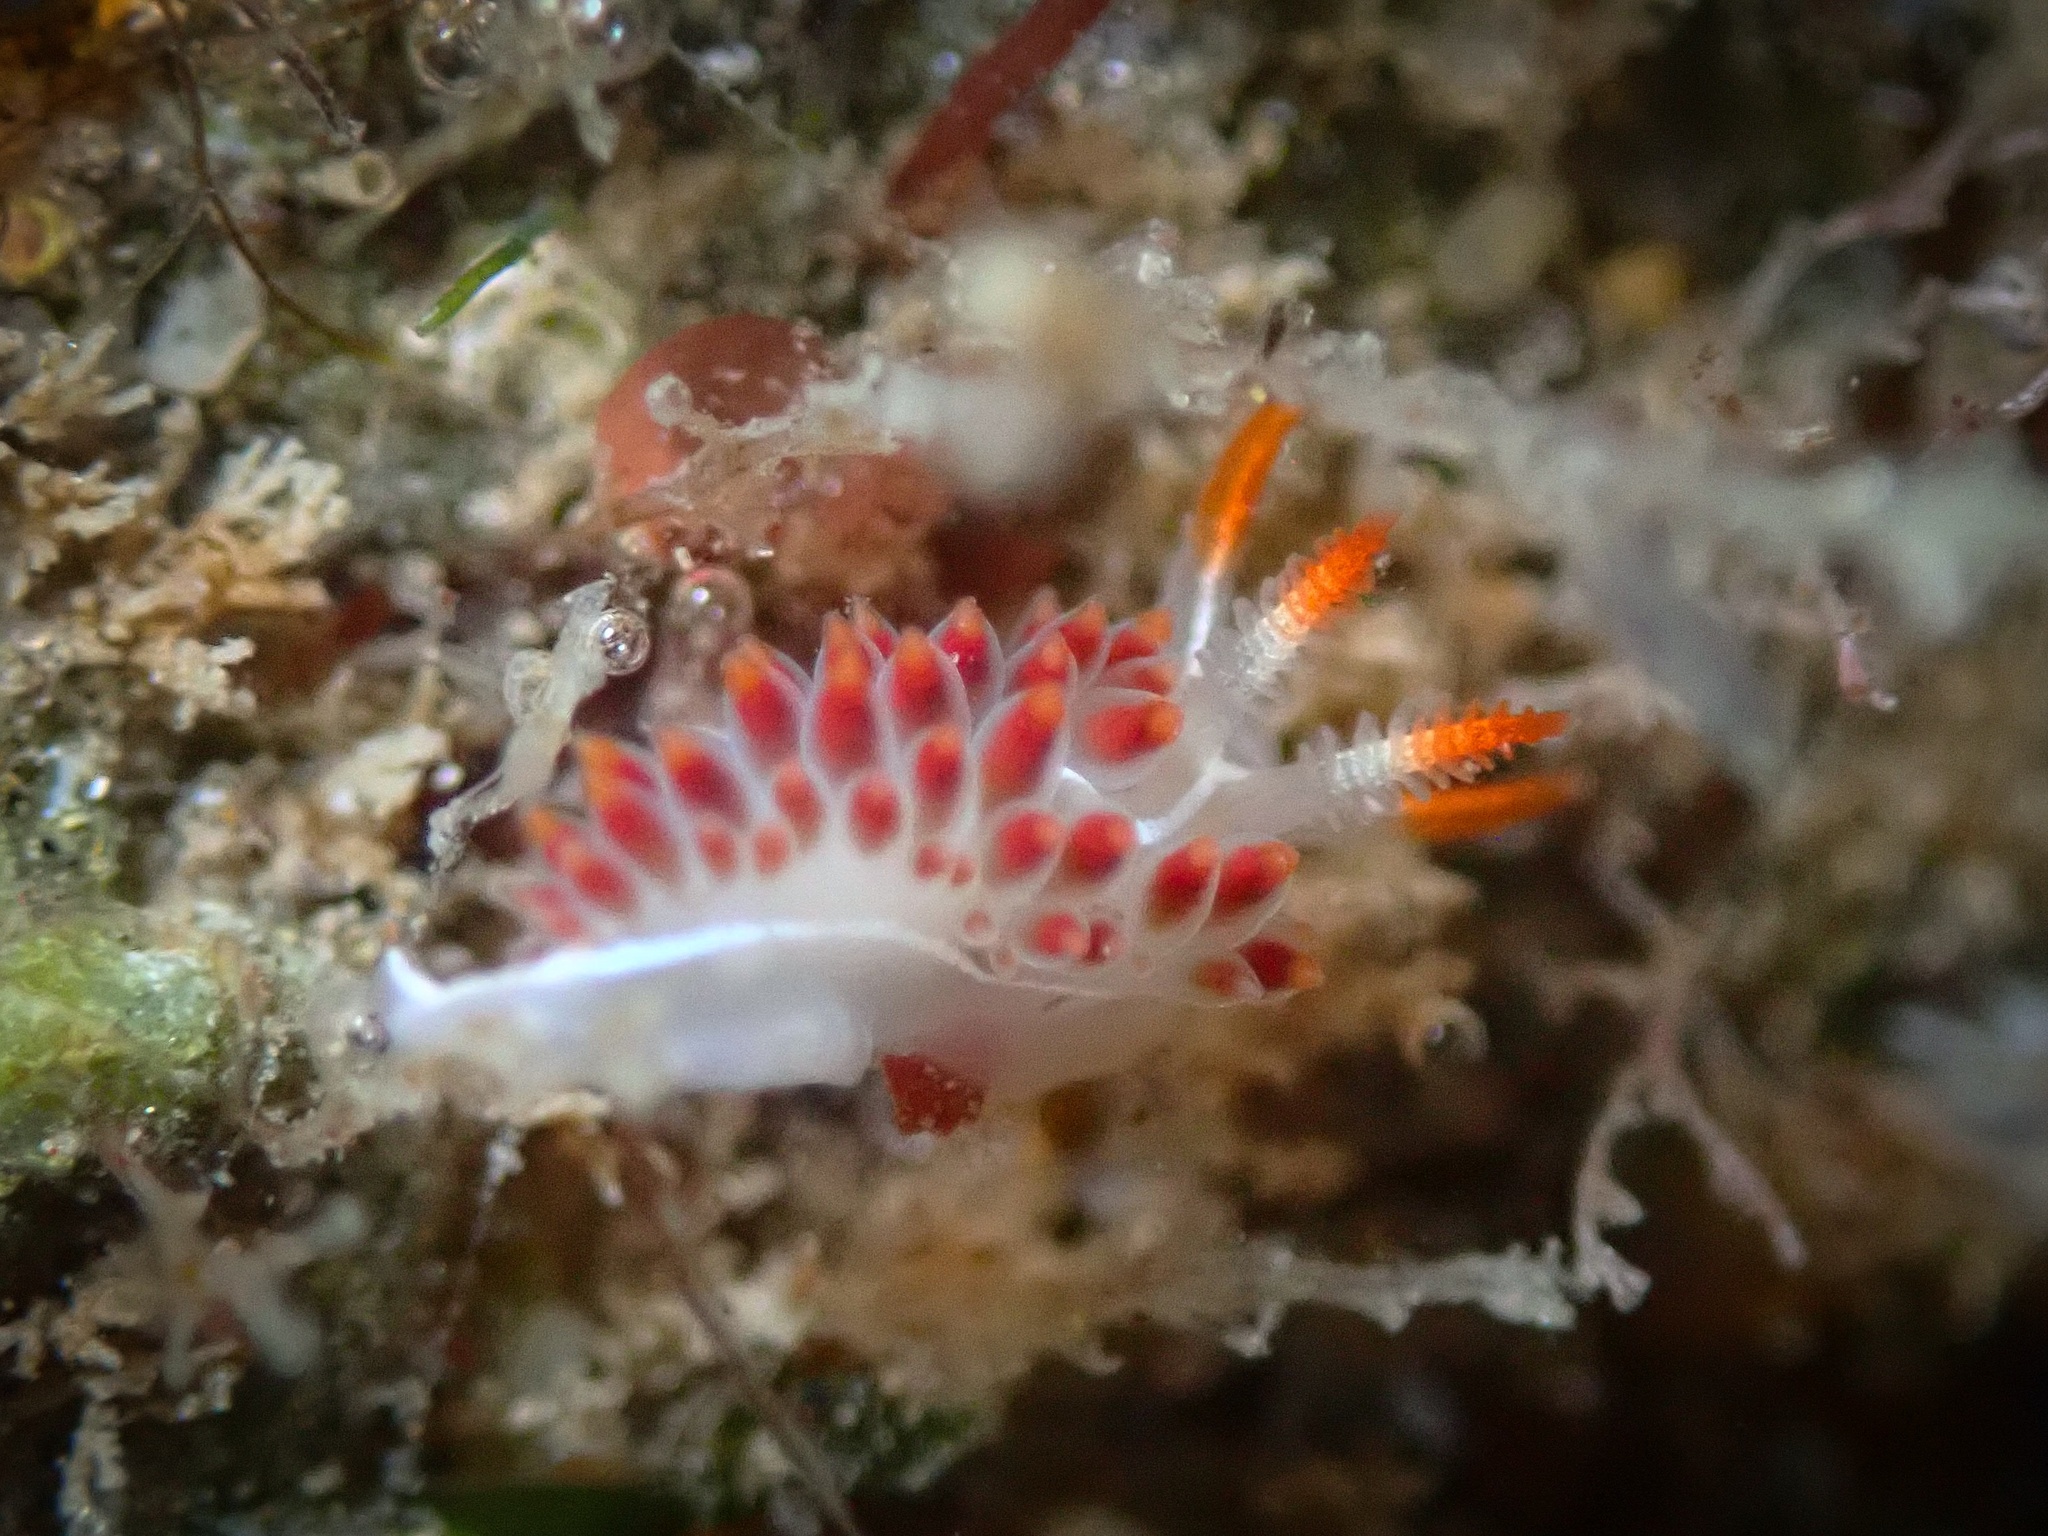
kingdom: Animalia
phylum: Mollusca
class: Gastropoda
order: Nudibranchia
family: Coryphellidae
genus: Coryphella
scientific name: Coryphella trilineata
